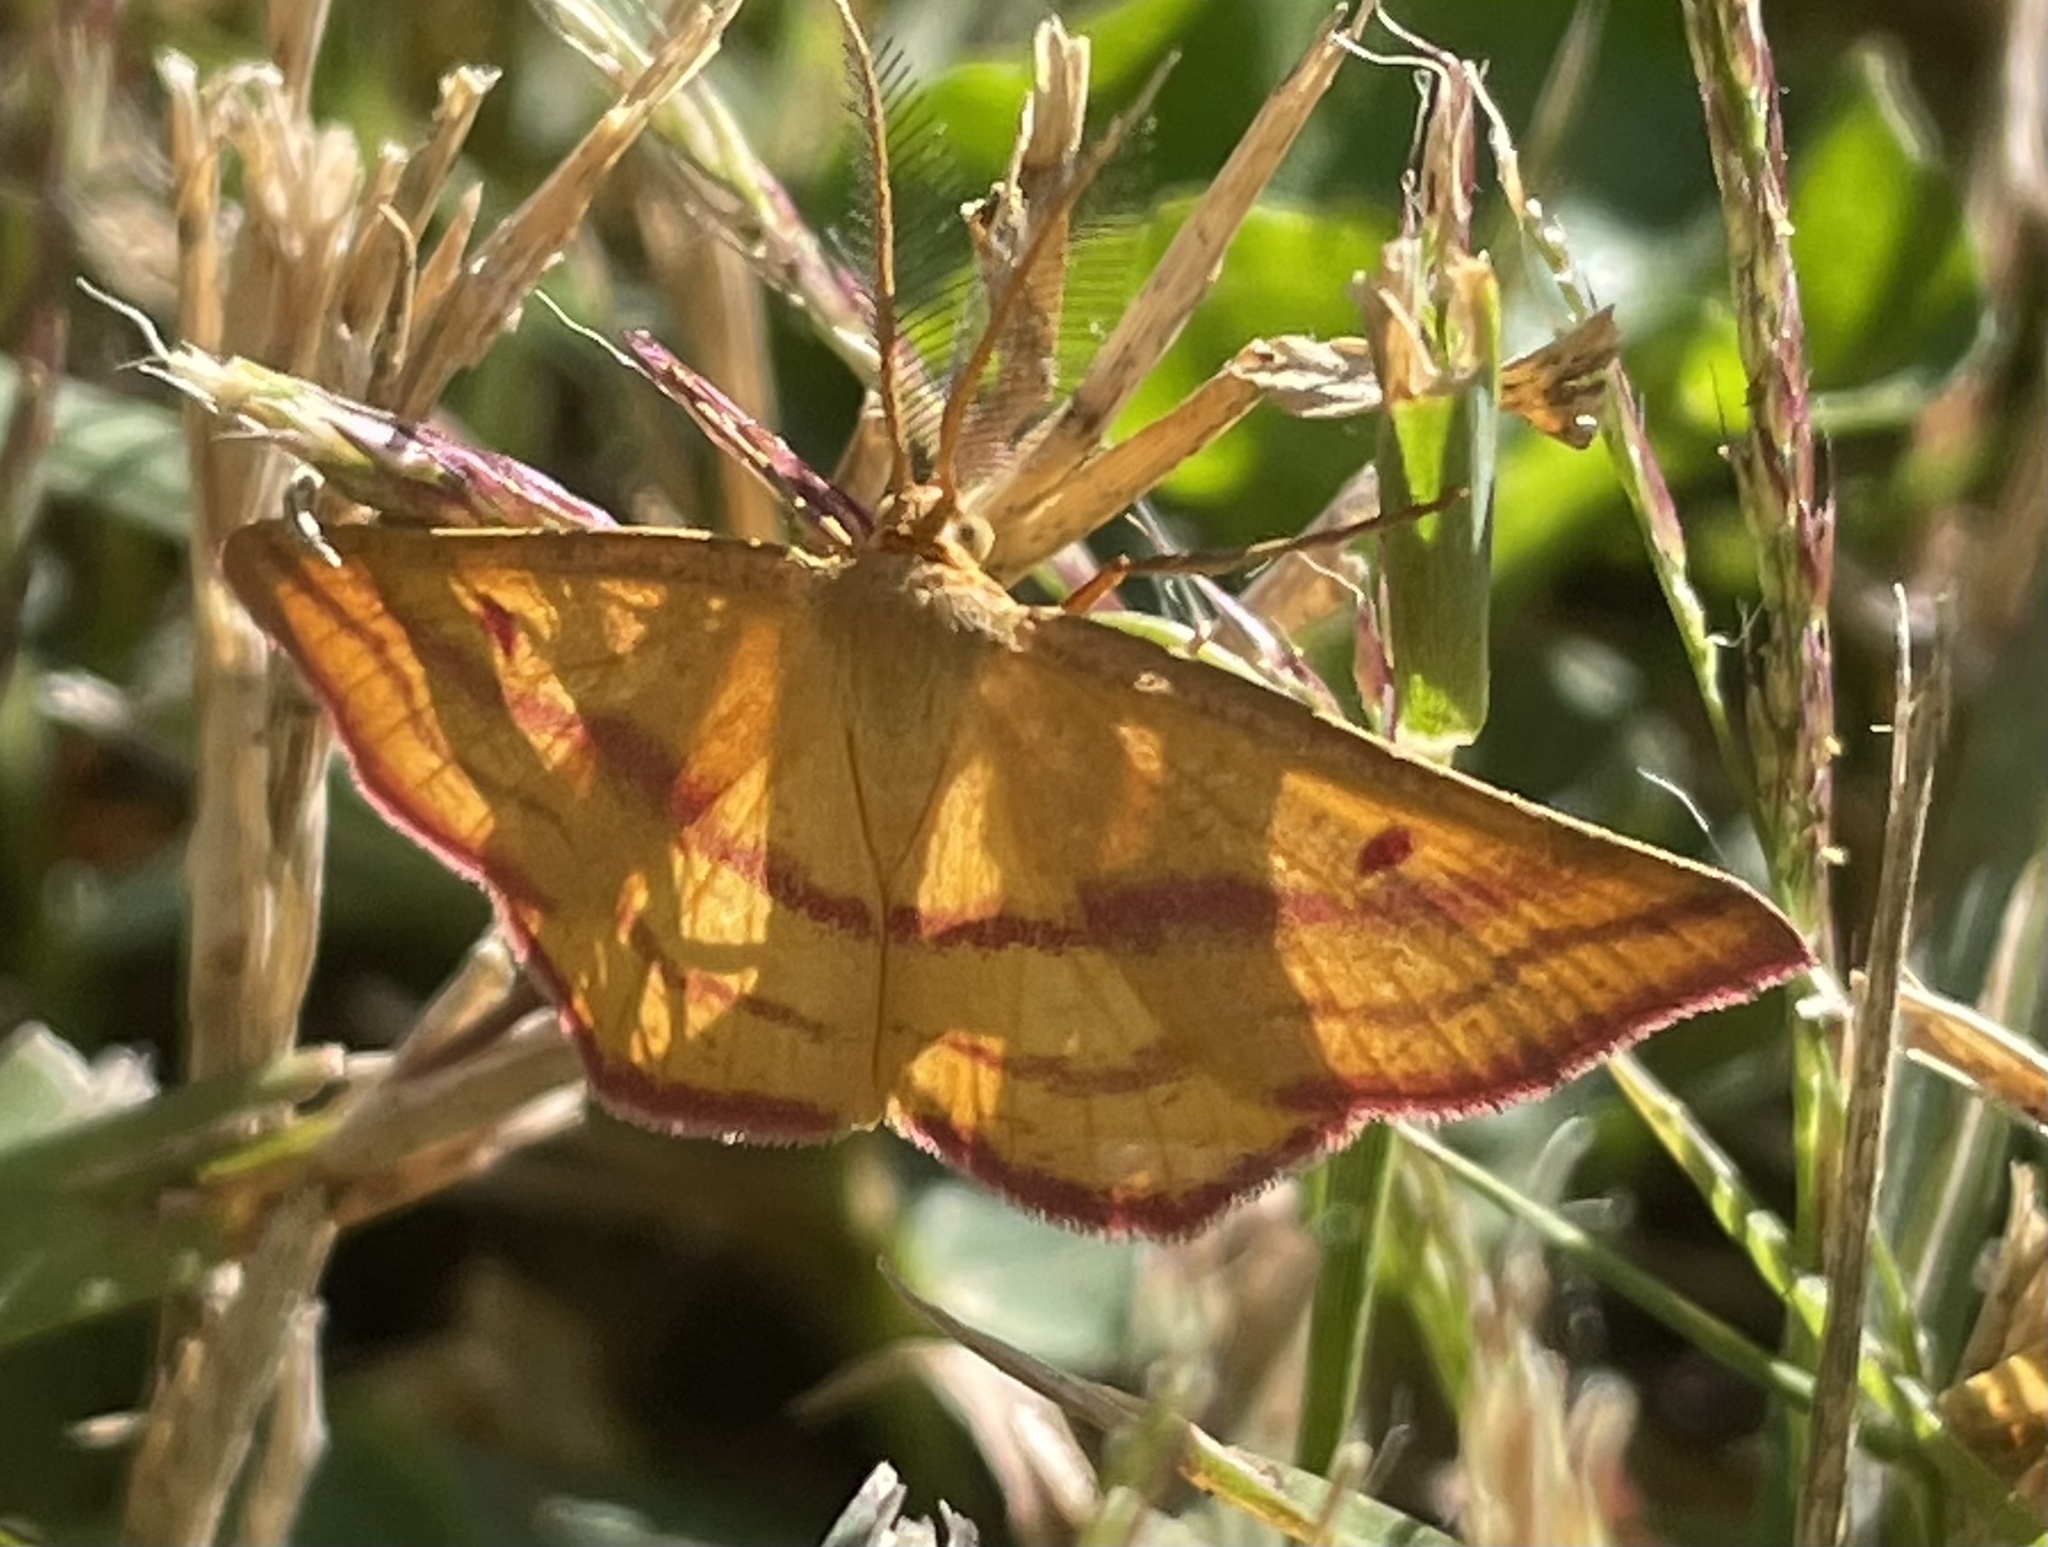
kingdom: Animalia
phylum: Arthropoda
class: Insecta
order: Lepidoptera
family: Geometridae
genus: Haematopis
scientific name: Haematopis grataria
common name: Chickweed geometer
